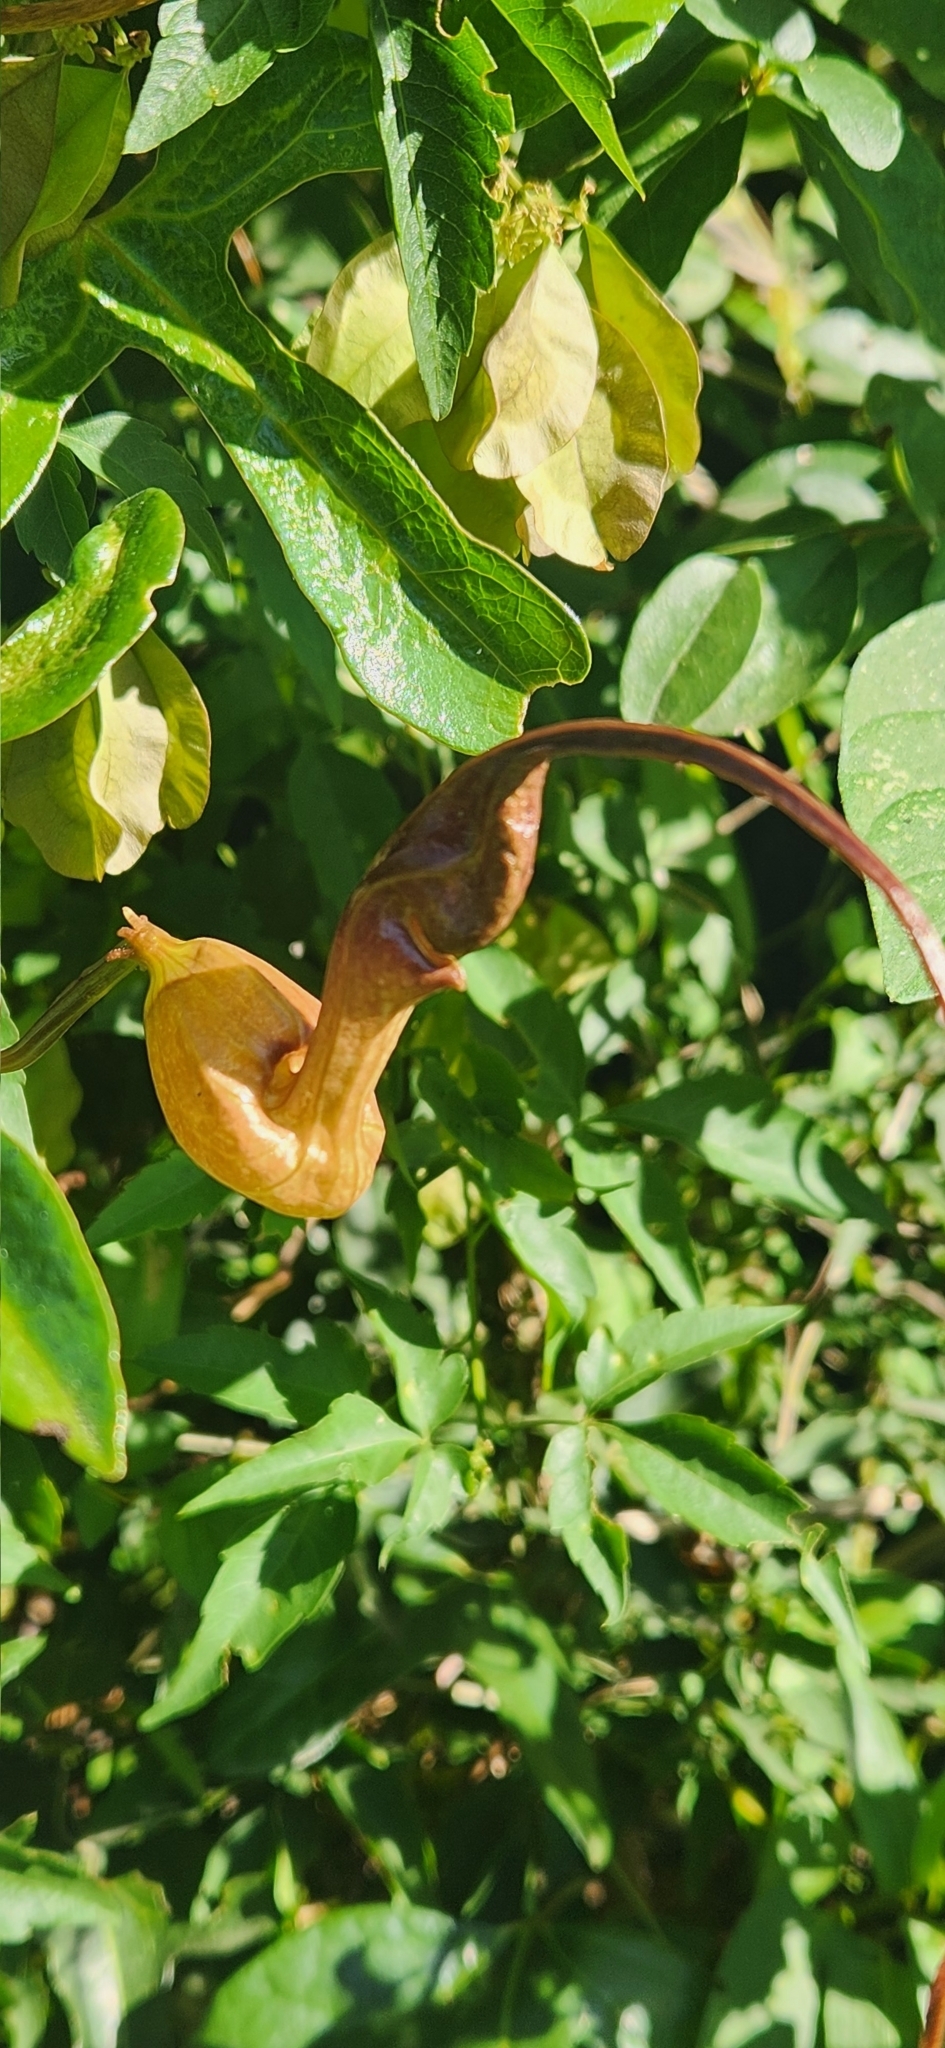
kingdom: Plantae
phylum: Tracheophyta
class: Magnoliopsida
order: Piperales
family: Aristolochiaceae
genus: Aristolochia
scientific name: Aristolochia trilobata
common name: Dutchman's pipe
